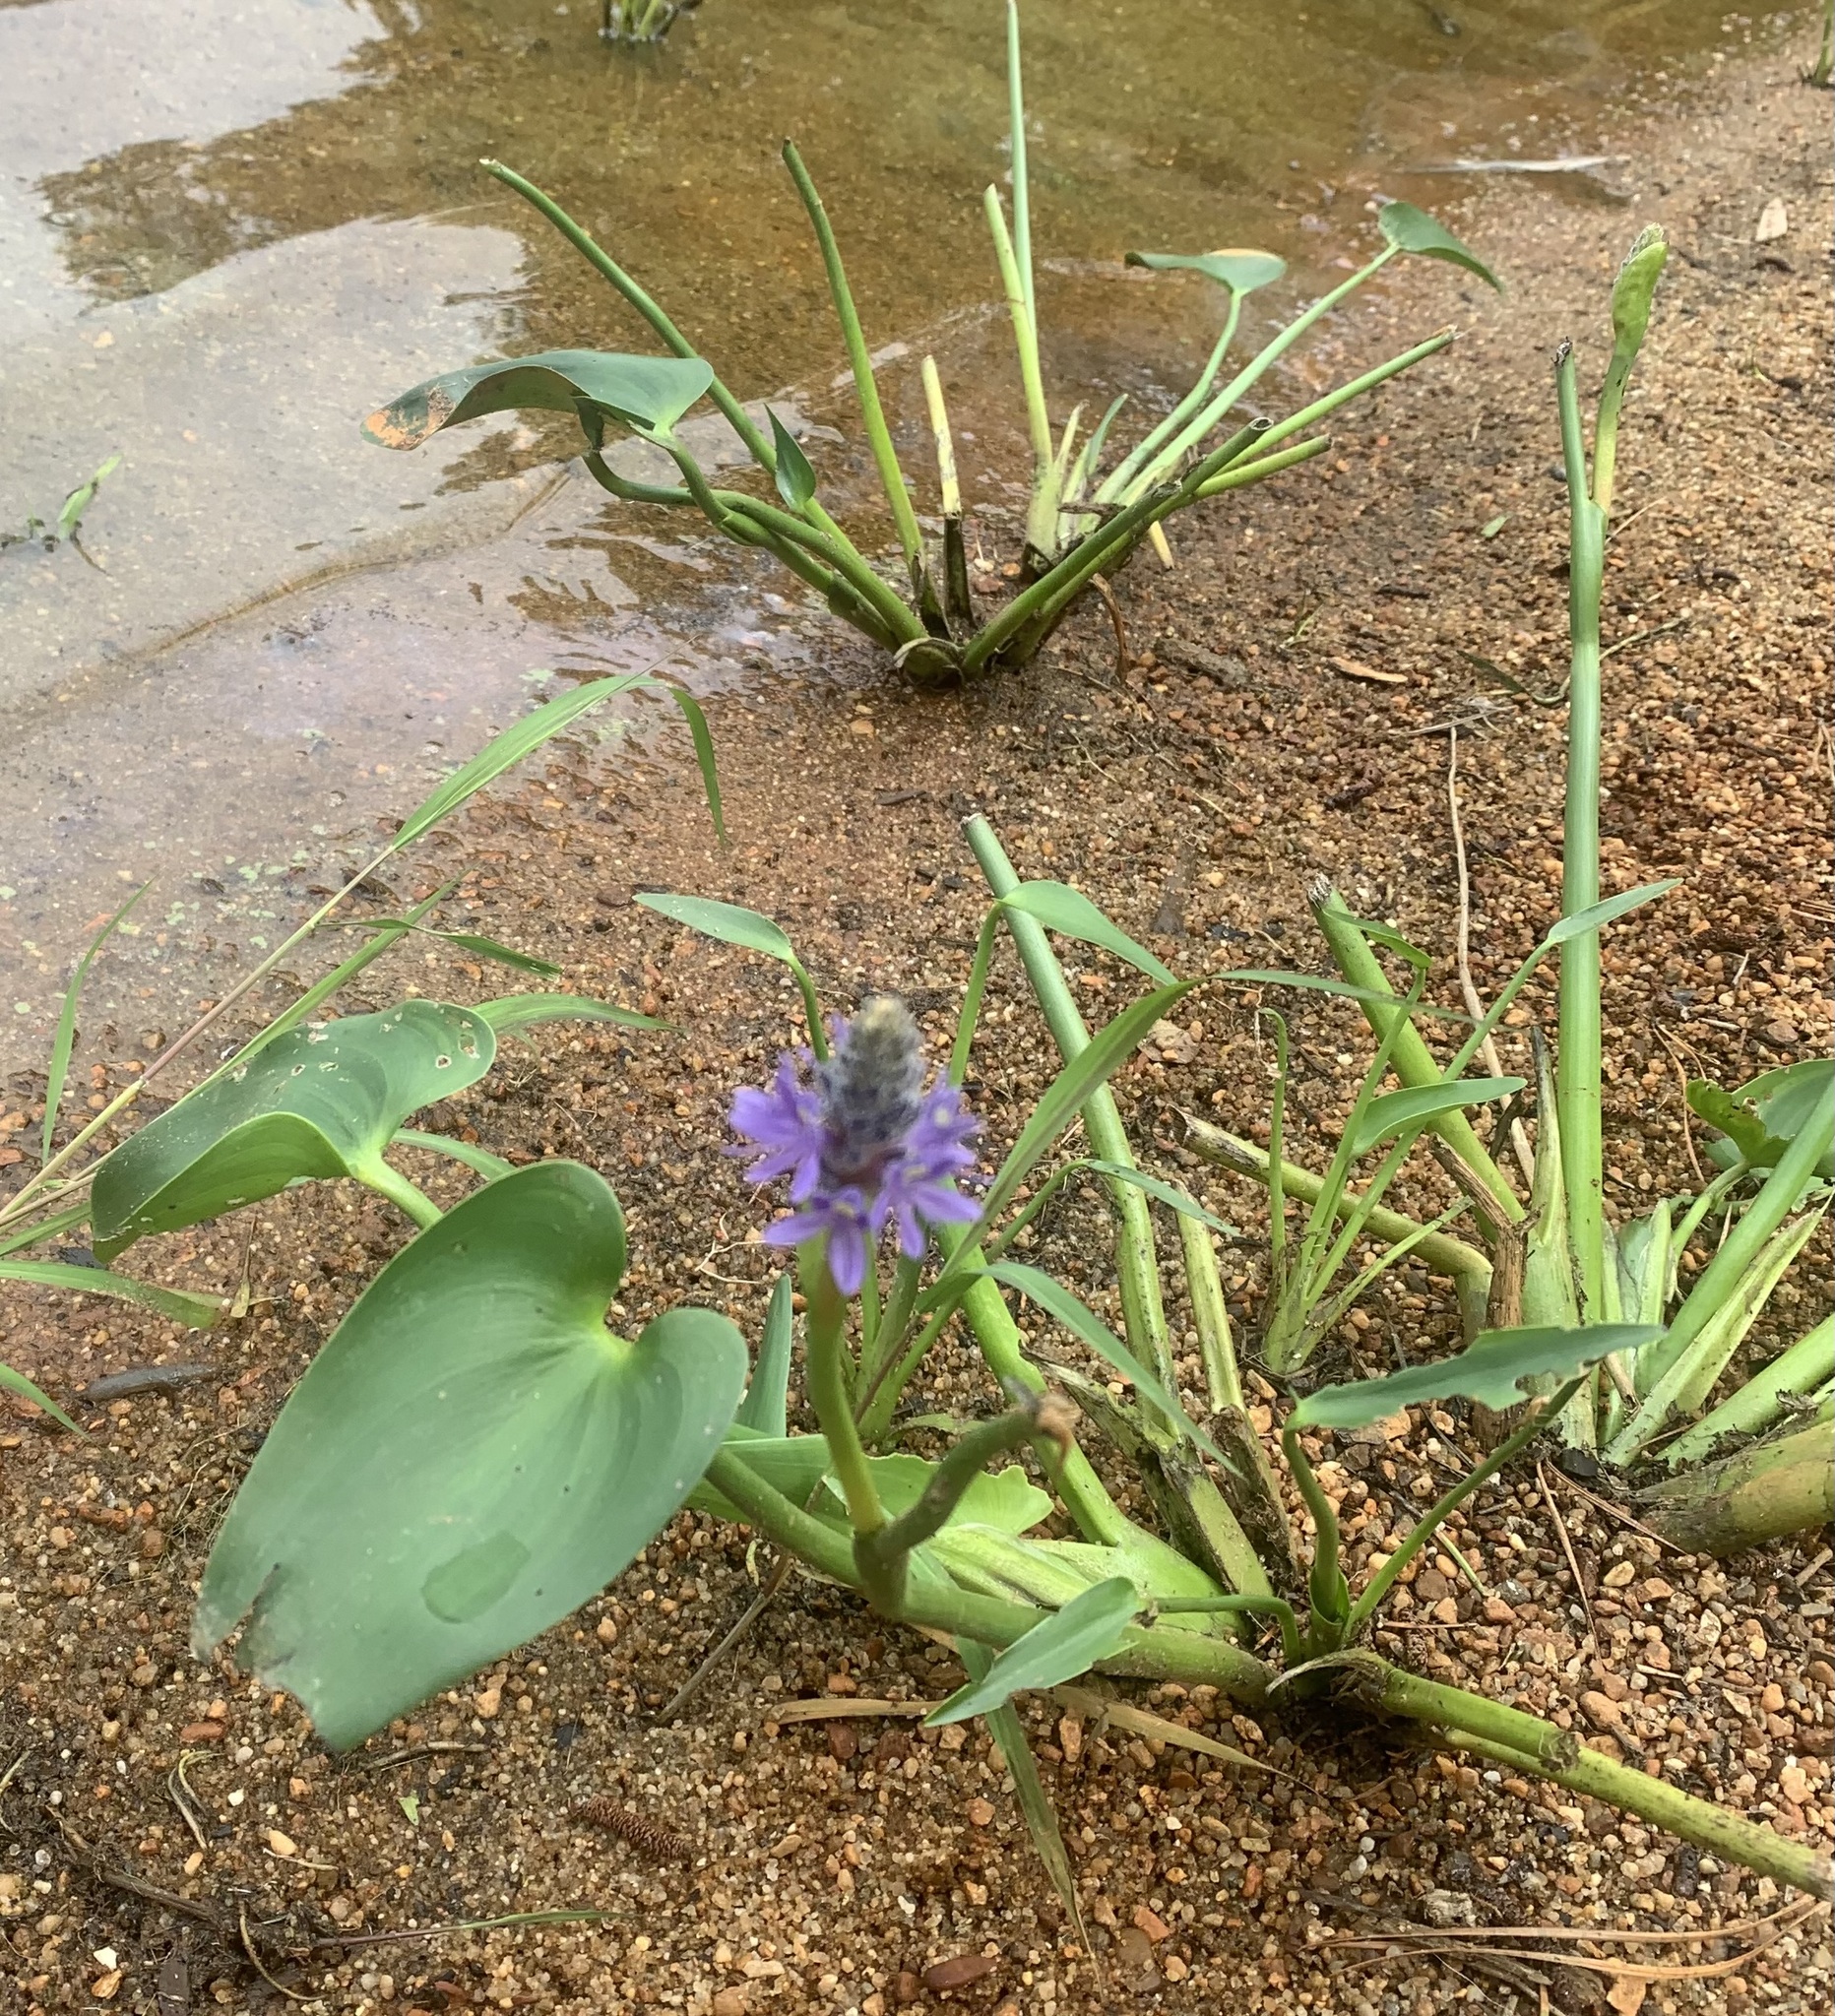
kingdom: Plantae
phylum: Tracheophyta
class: Liliopsida
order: Commelinales
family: Pontederiaceae
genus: Pontederia
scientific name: Pontederia cordata
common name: Pickerelweed
